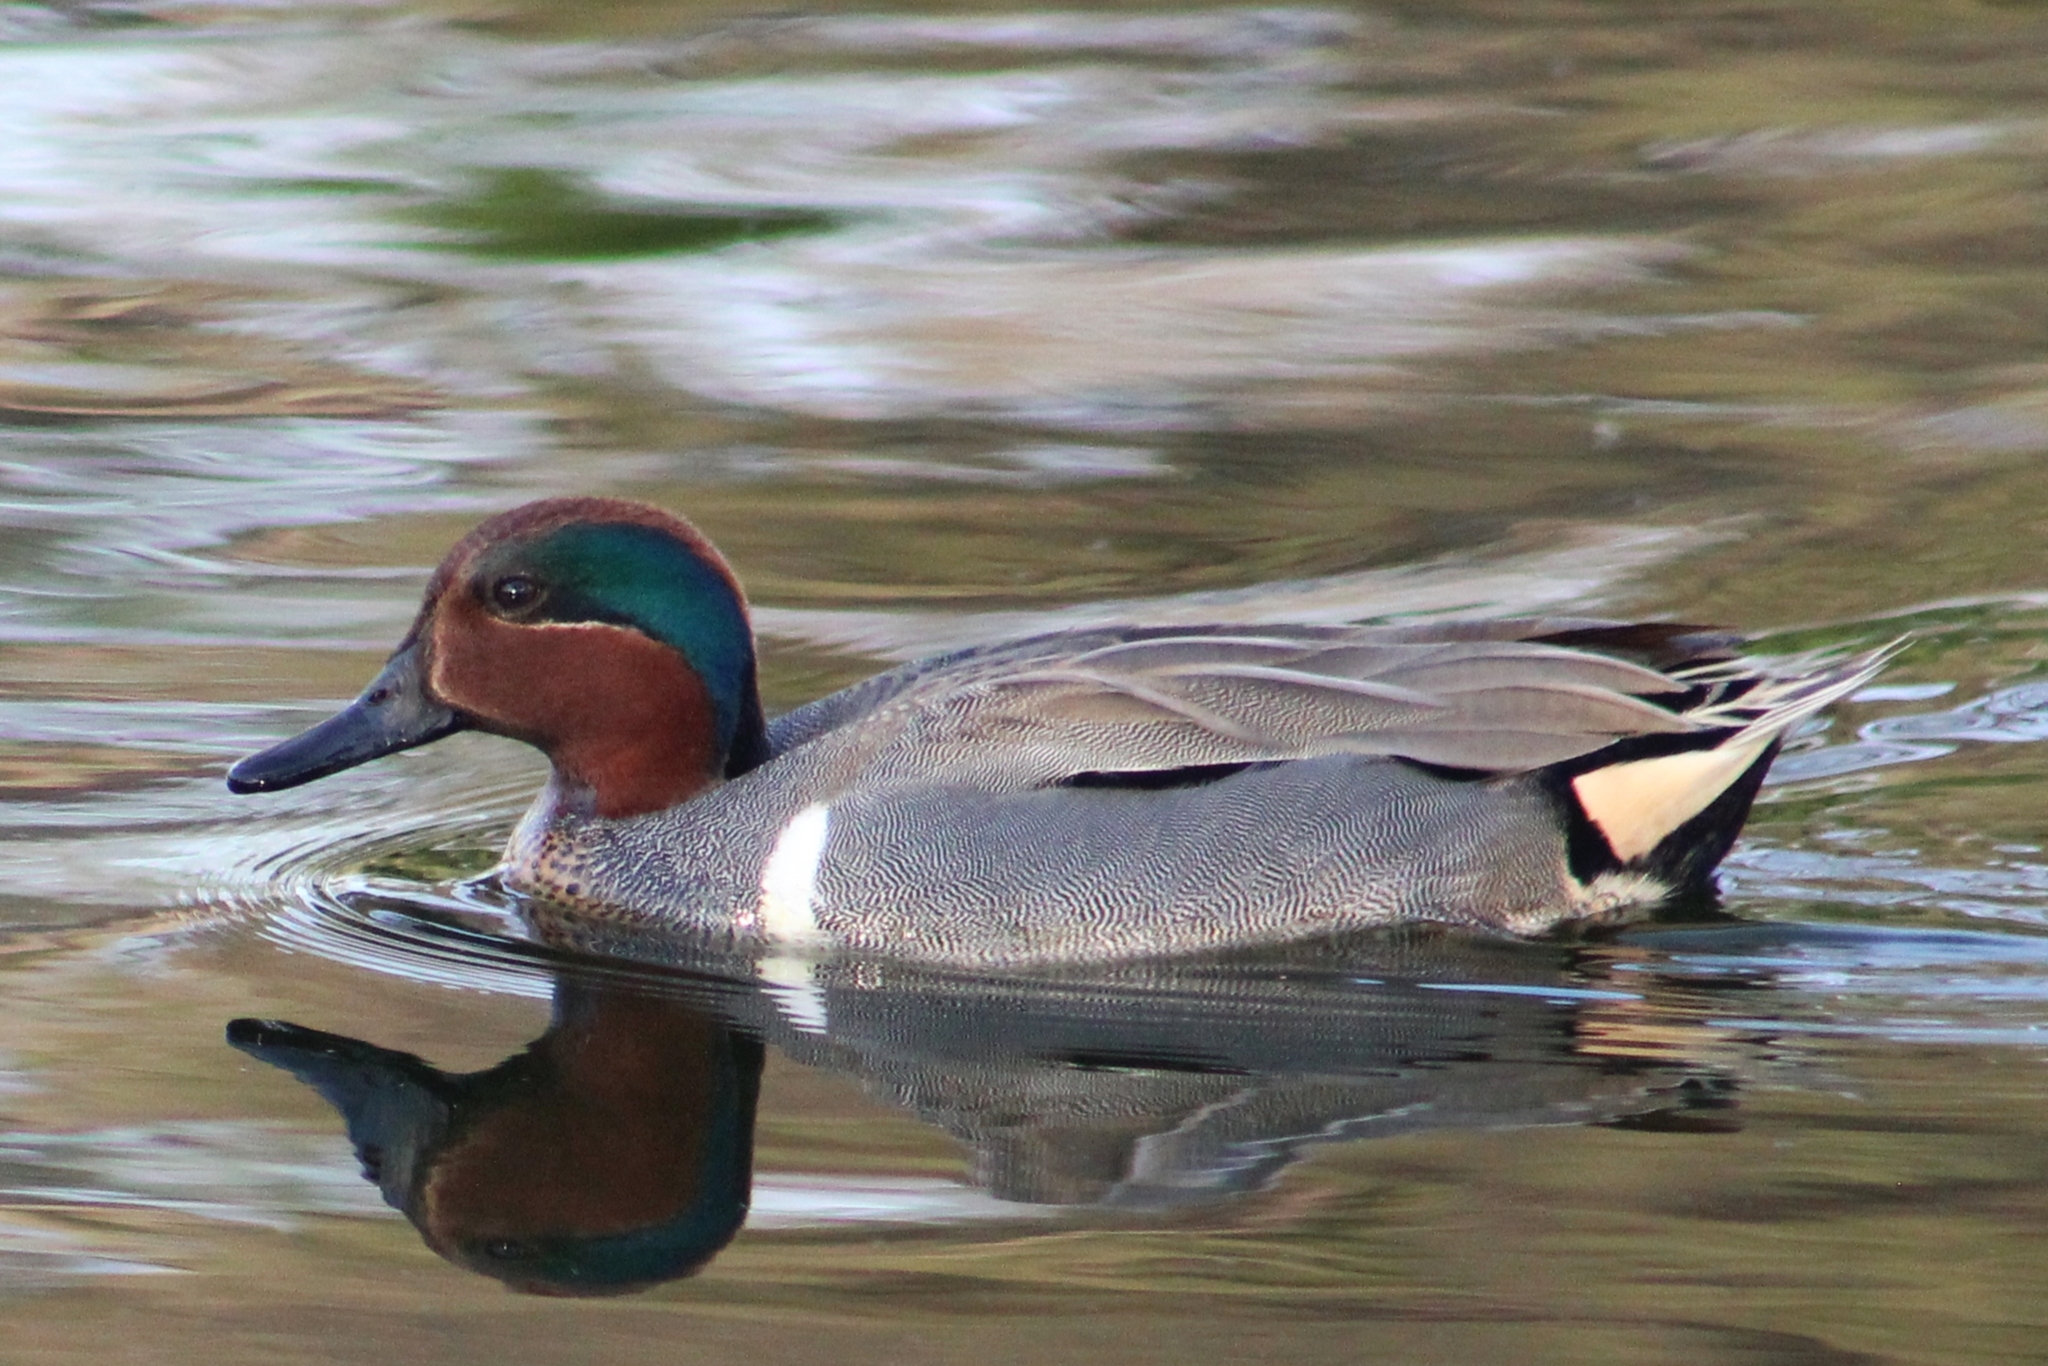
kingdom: Animalia
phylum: Chordata
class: Aves
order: Anseriformes
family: Anatidae
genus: Anas
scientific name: Anas crecca
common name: Eurasian teal
